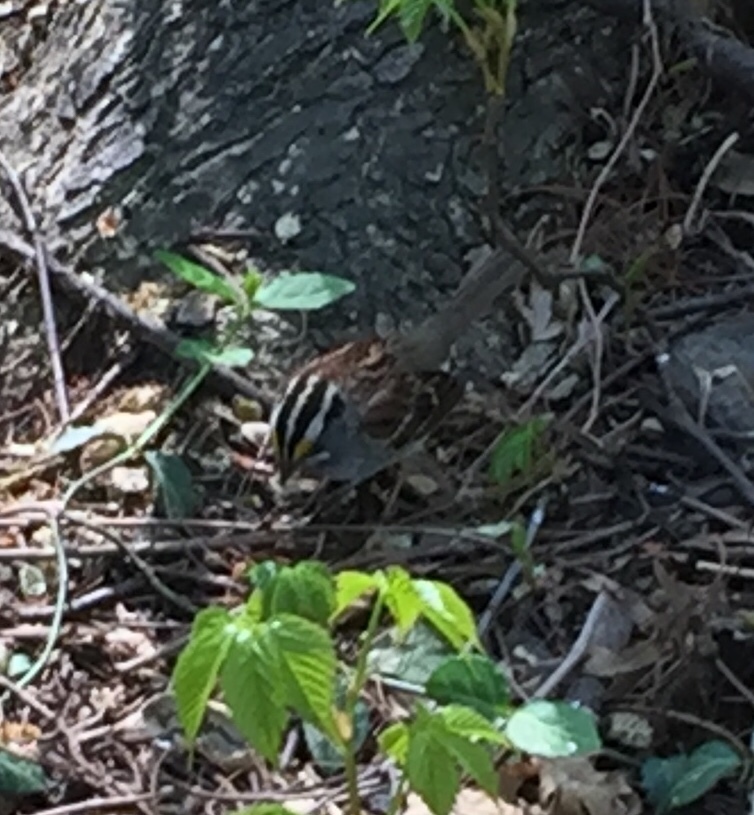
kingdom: Animalia
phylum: Chordata
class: Aves
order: Passeriformes
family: Passerellidae
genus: Zonotrichia
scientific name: Zonotrichia albicollis
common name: White-throated sparrow
